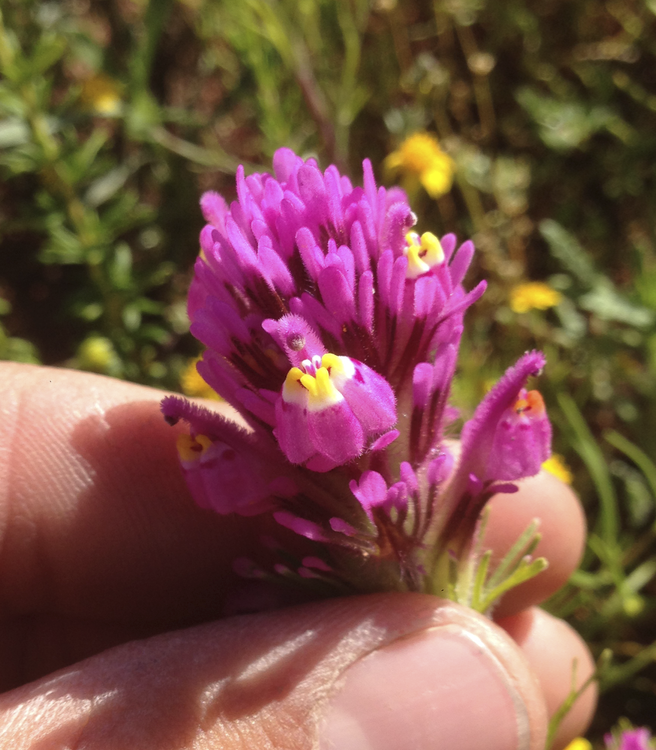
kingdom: Plantae
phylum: Tracheophyta
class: Magnoliopsida
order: Lamiales
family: Orobanchaceae
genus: Castilleja
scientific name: Castilleja exserta
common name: Purple owl-clover
